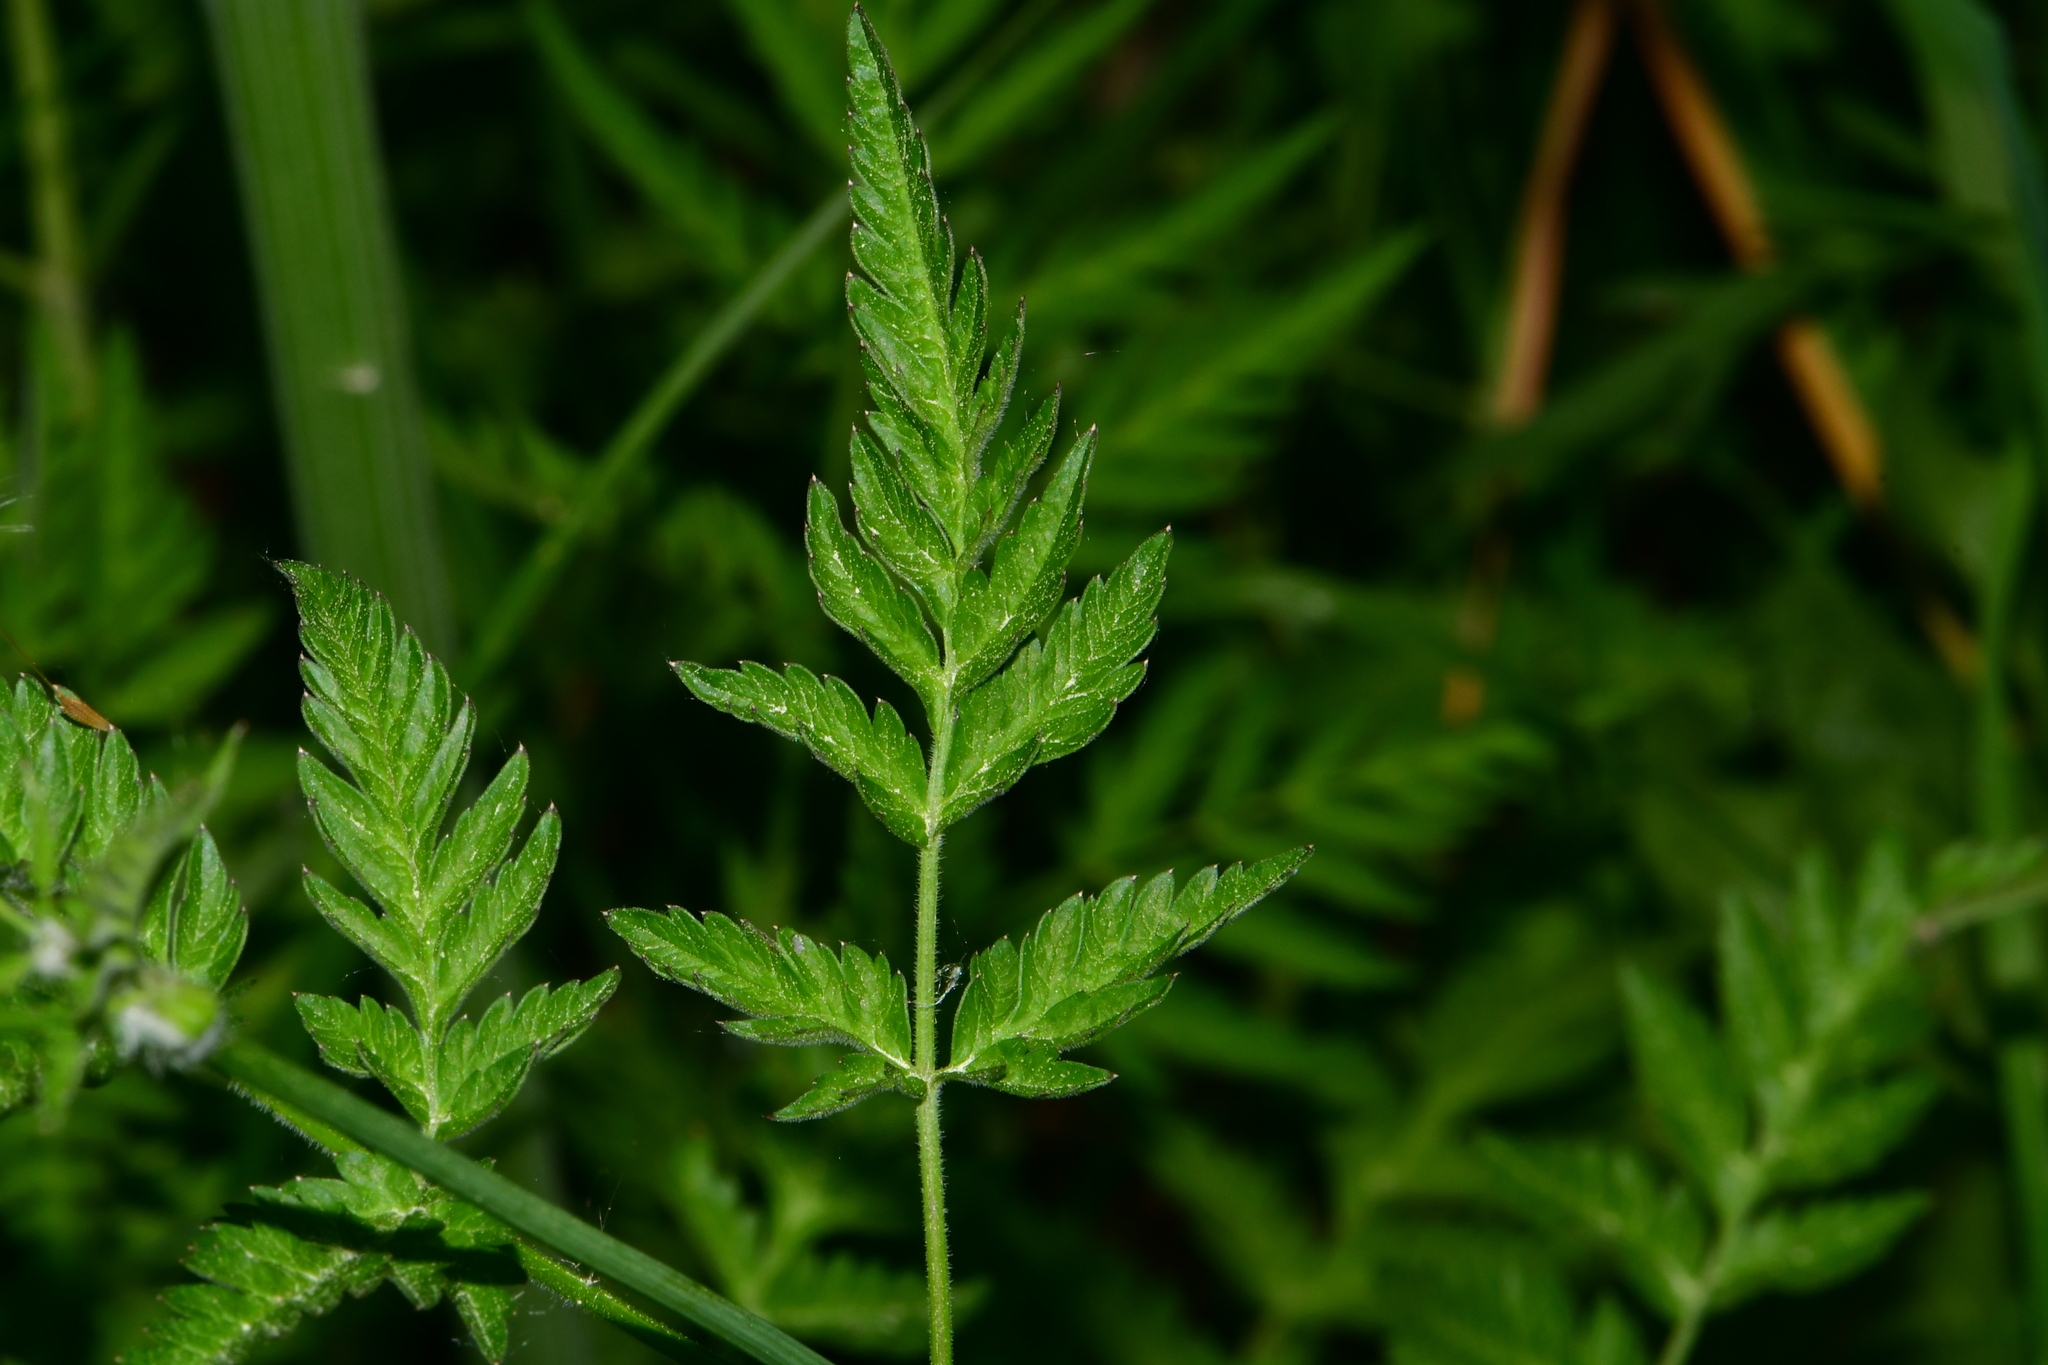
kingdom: Plantae
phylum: Tracheophyta
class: Magnoliopsida
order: Apiales
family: Apiaceae
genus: Anthriscus
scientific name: Anthriscus sylvestris
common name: Cow parsley
